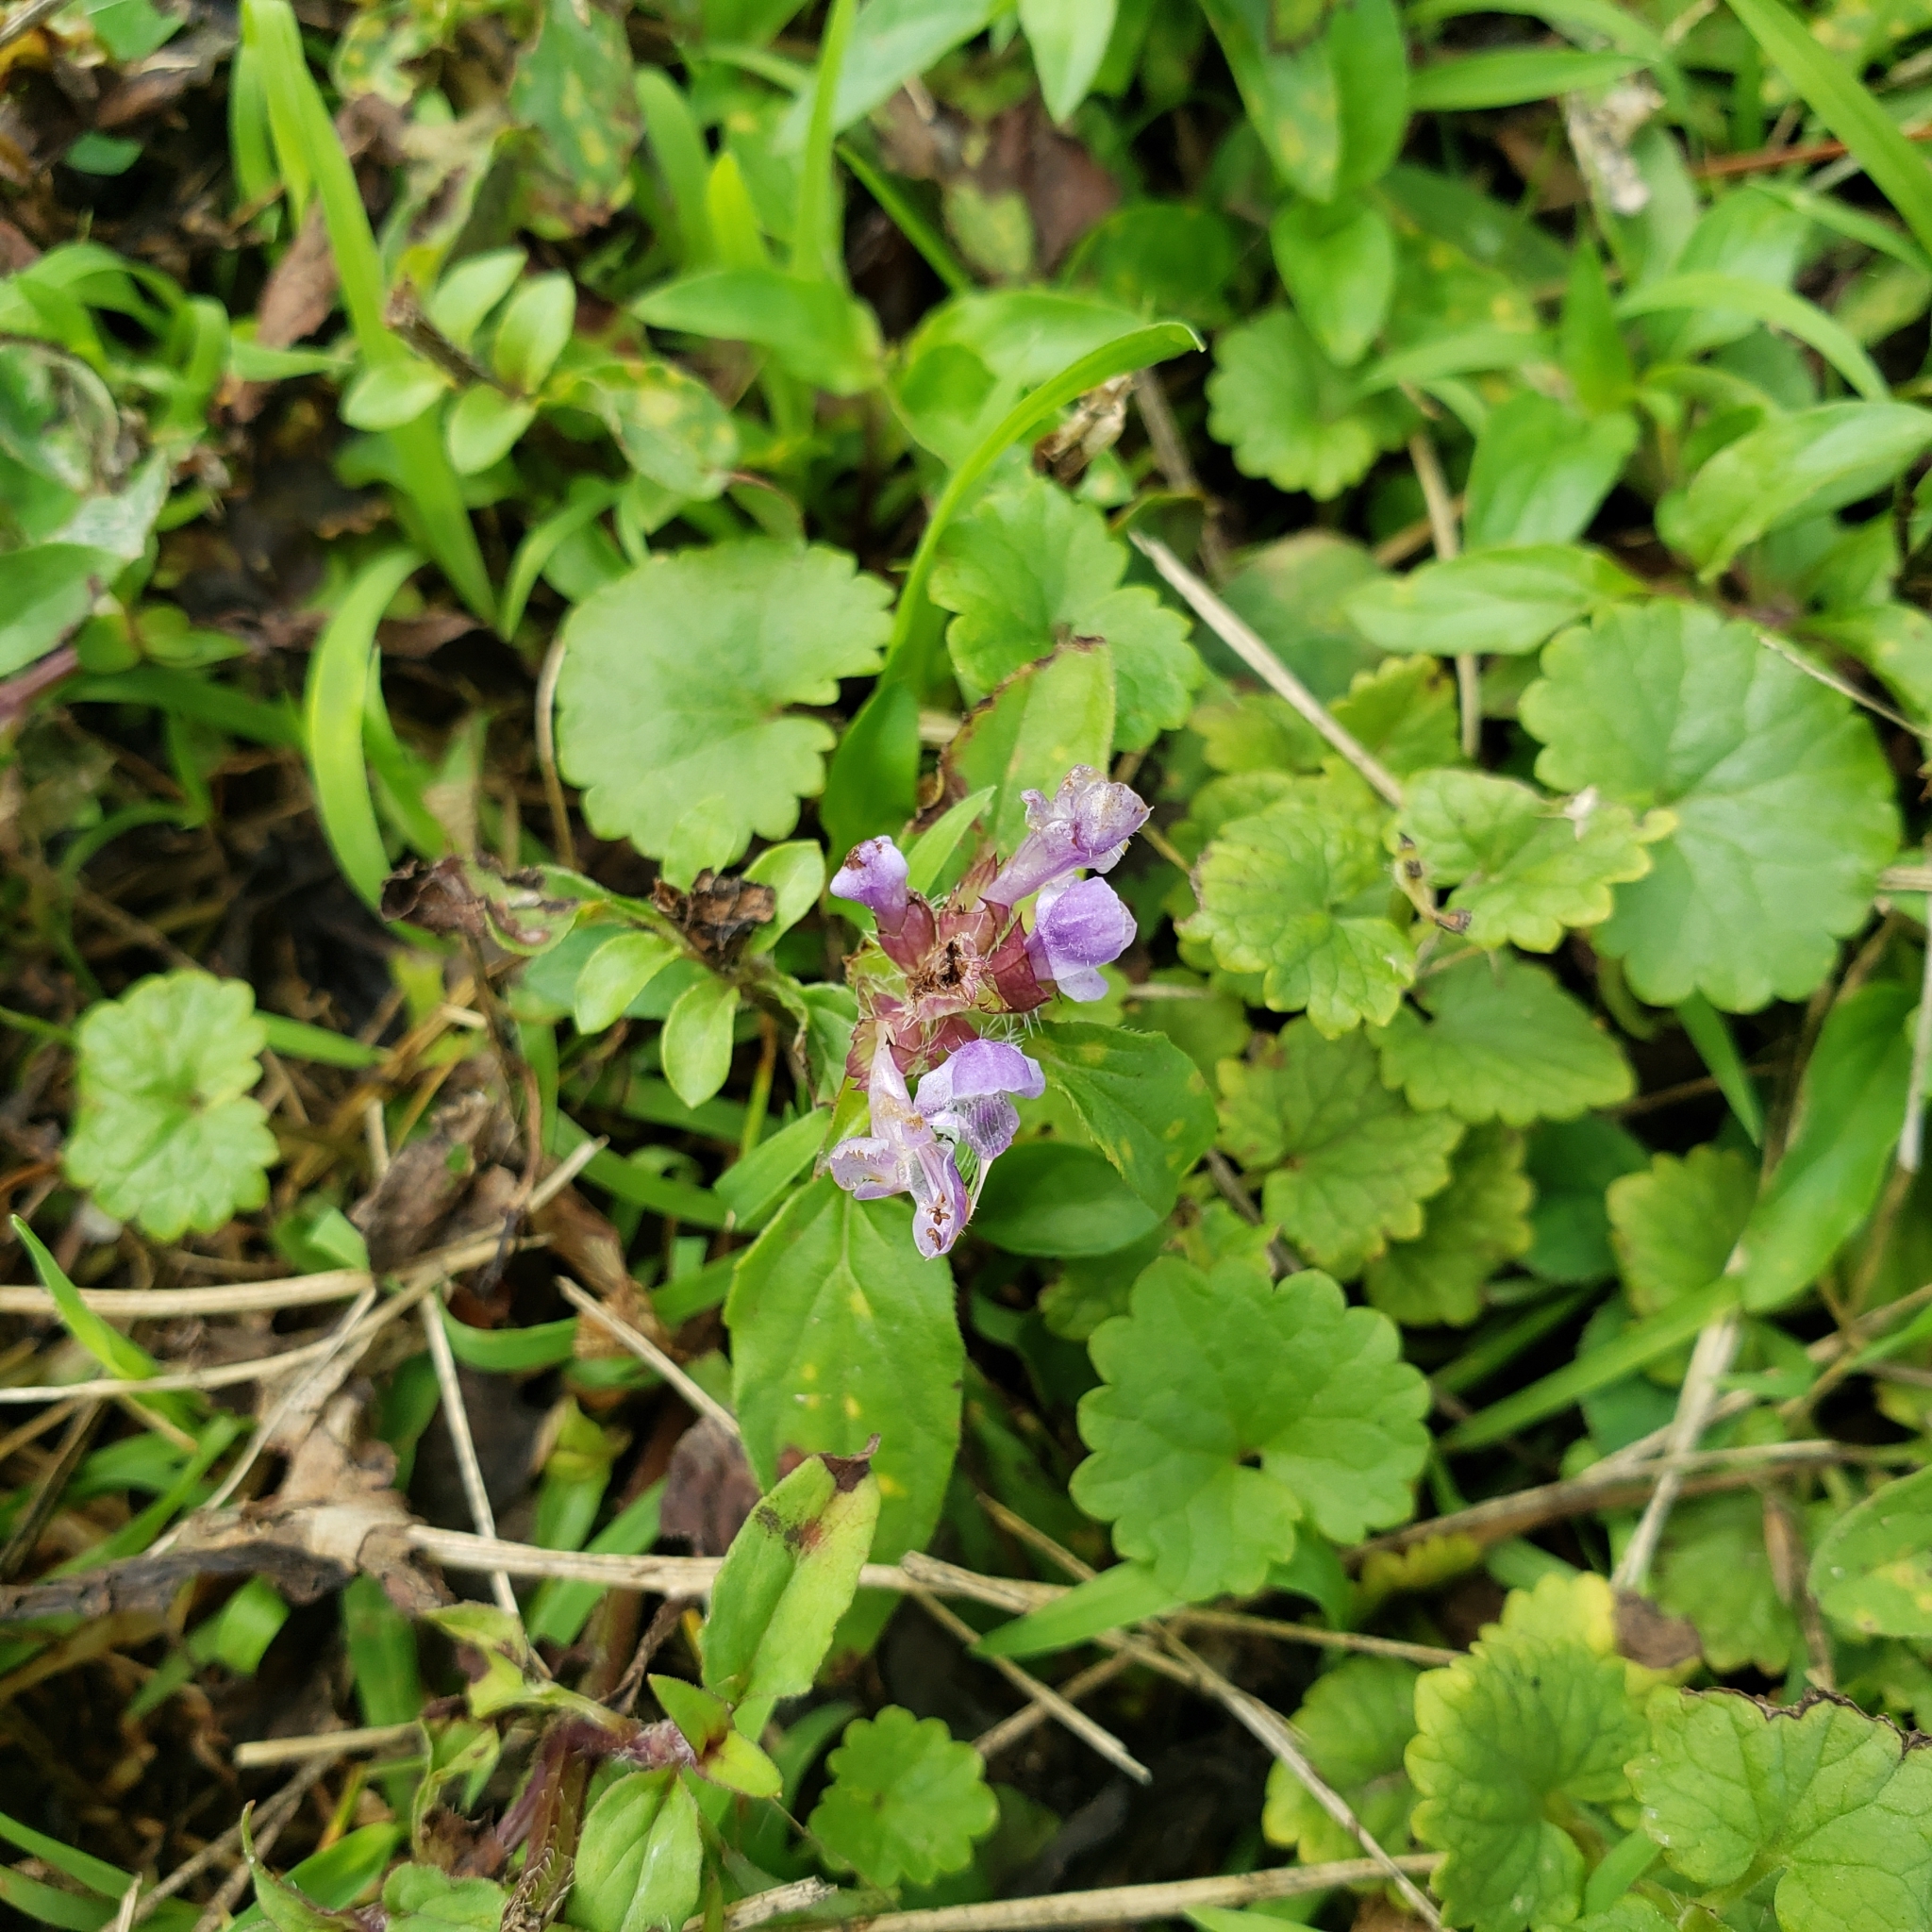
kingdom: Plantae
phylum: Tracheophyta
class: Magnoliopsida
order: Lamiales
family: Lamiaceae
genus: Glechoma
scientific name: Glechoma hederacea
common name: Ground ivy
